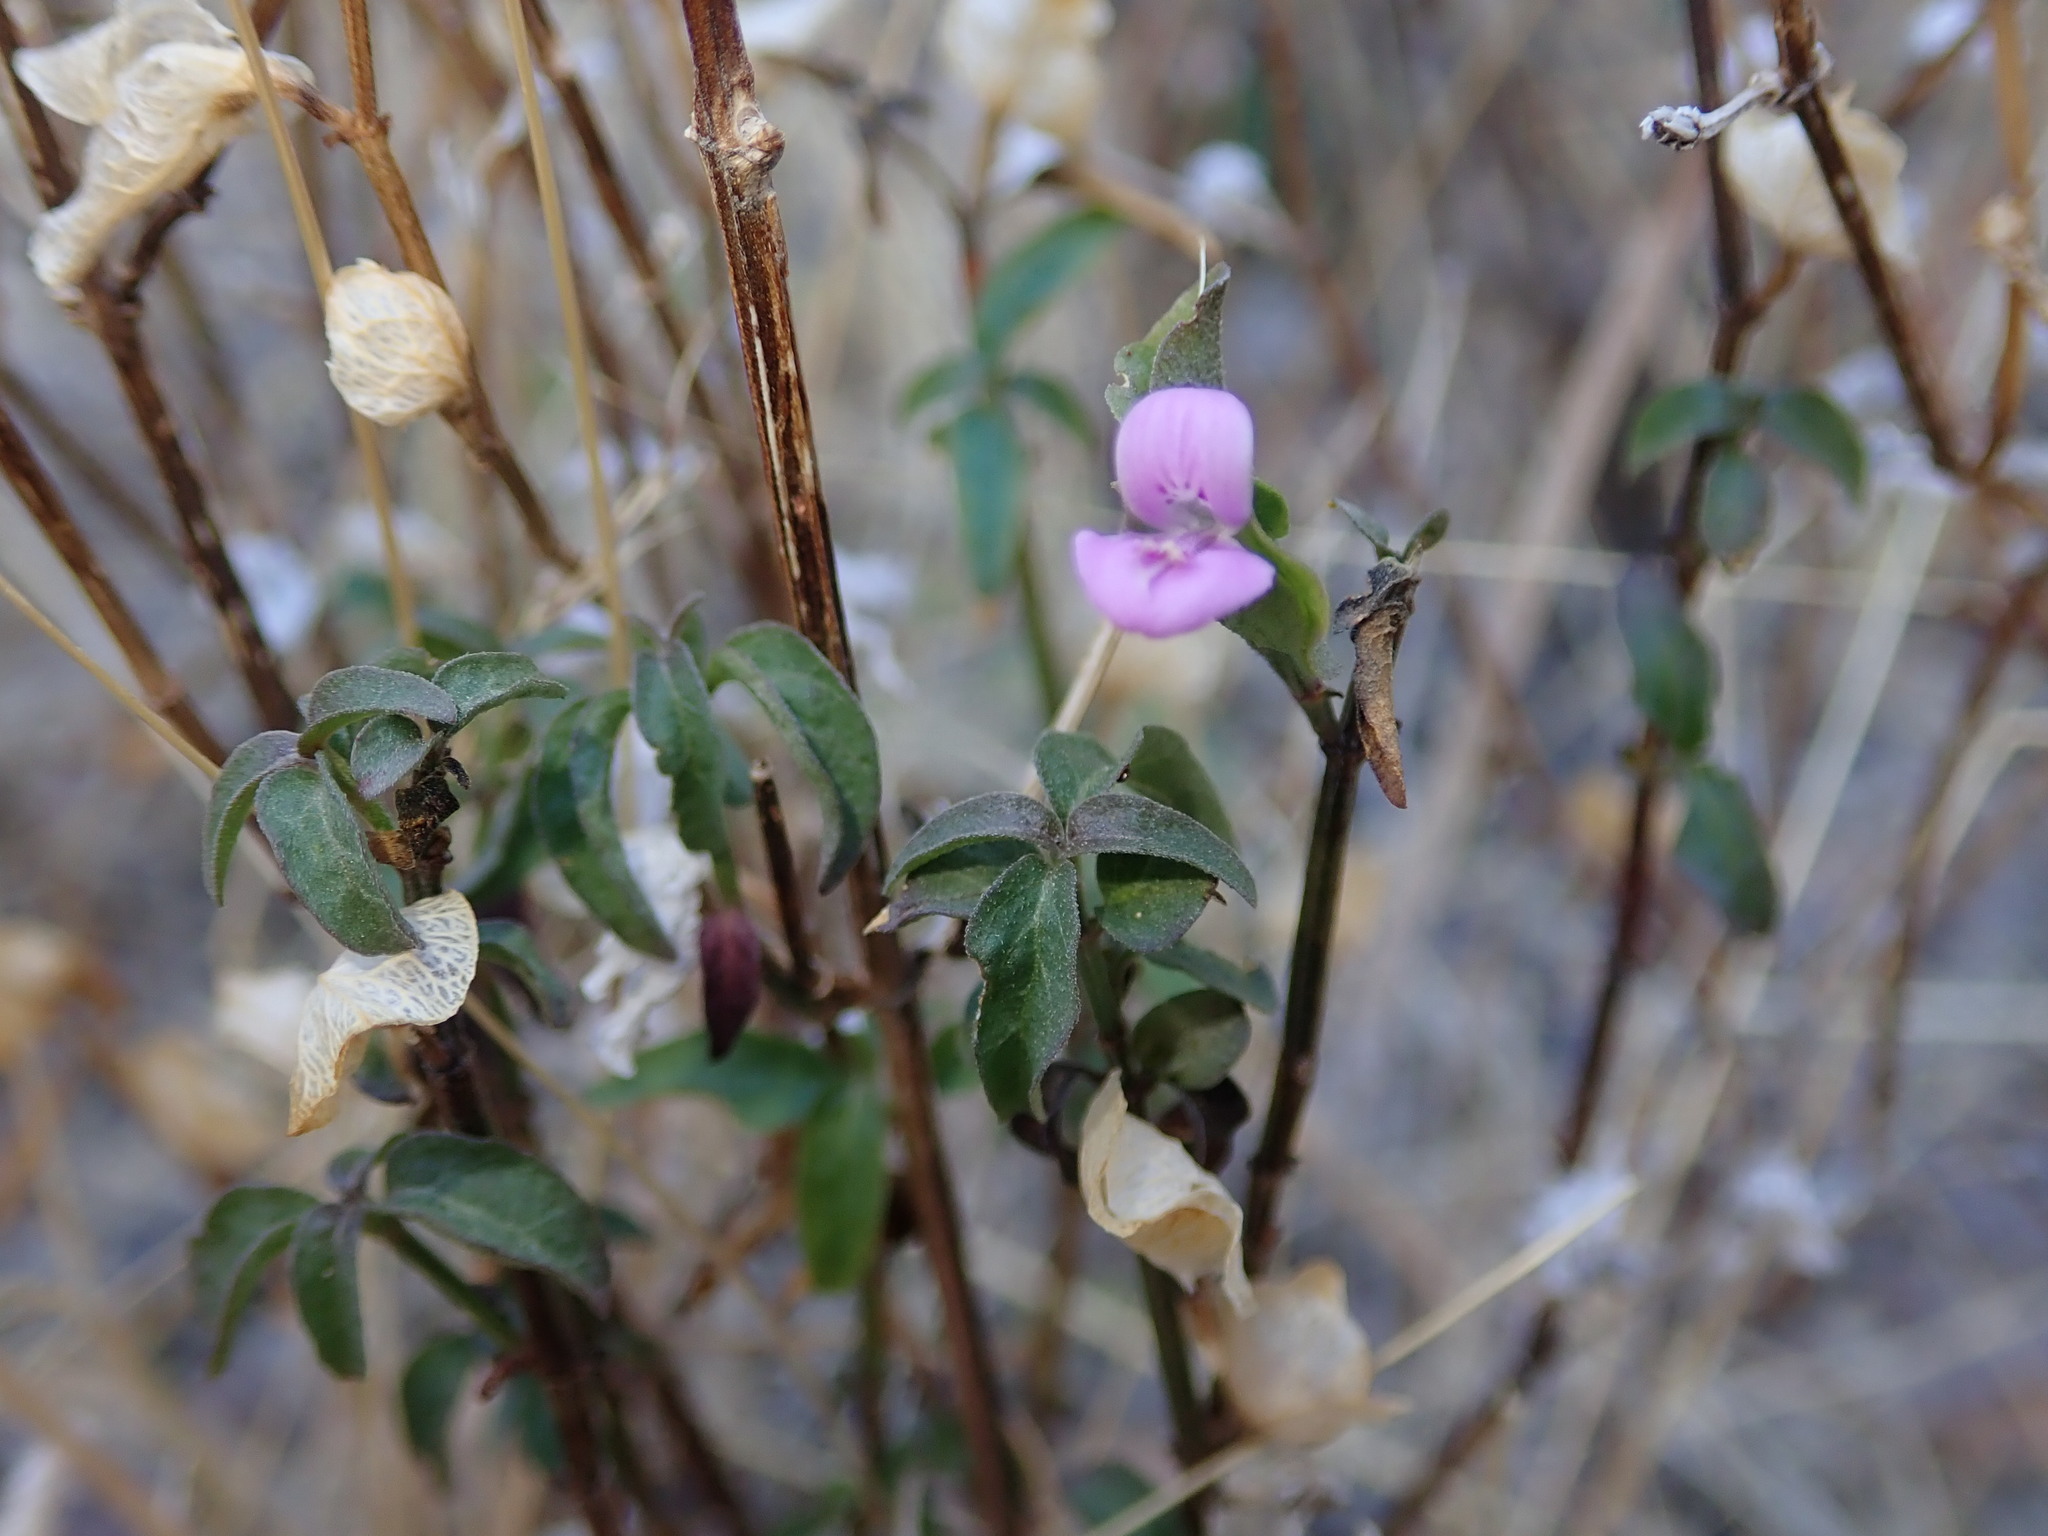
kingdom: Plantae
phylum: Tracheophyta
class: Magnoliopsida
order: Lamiales
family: Acanthaceae
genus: Dicliptera
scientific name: Dicliptera resupinata
